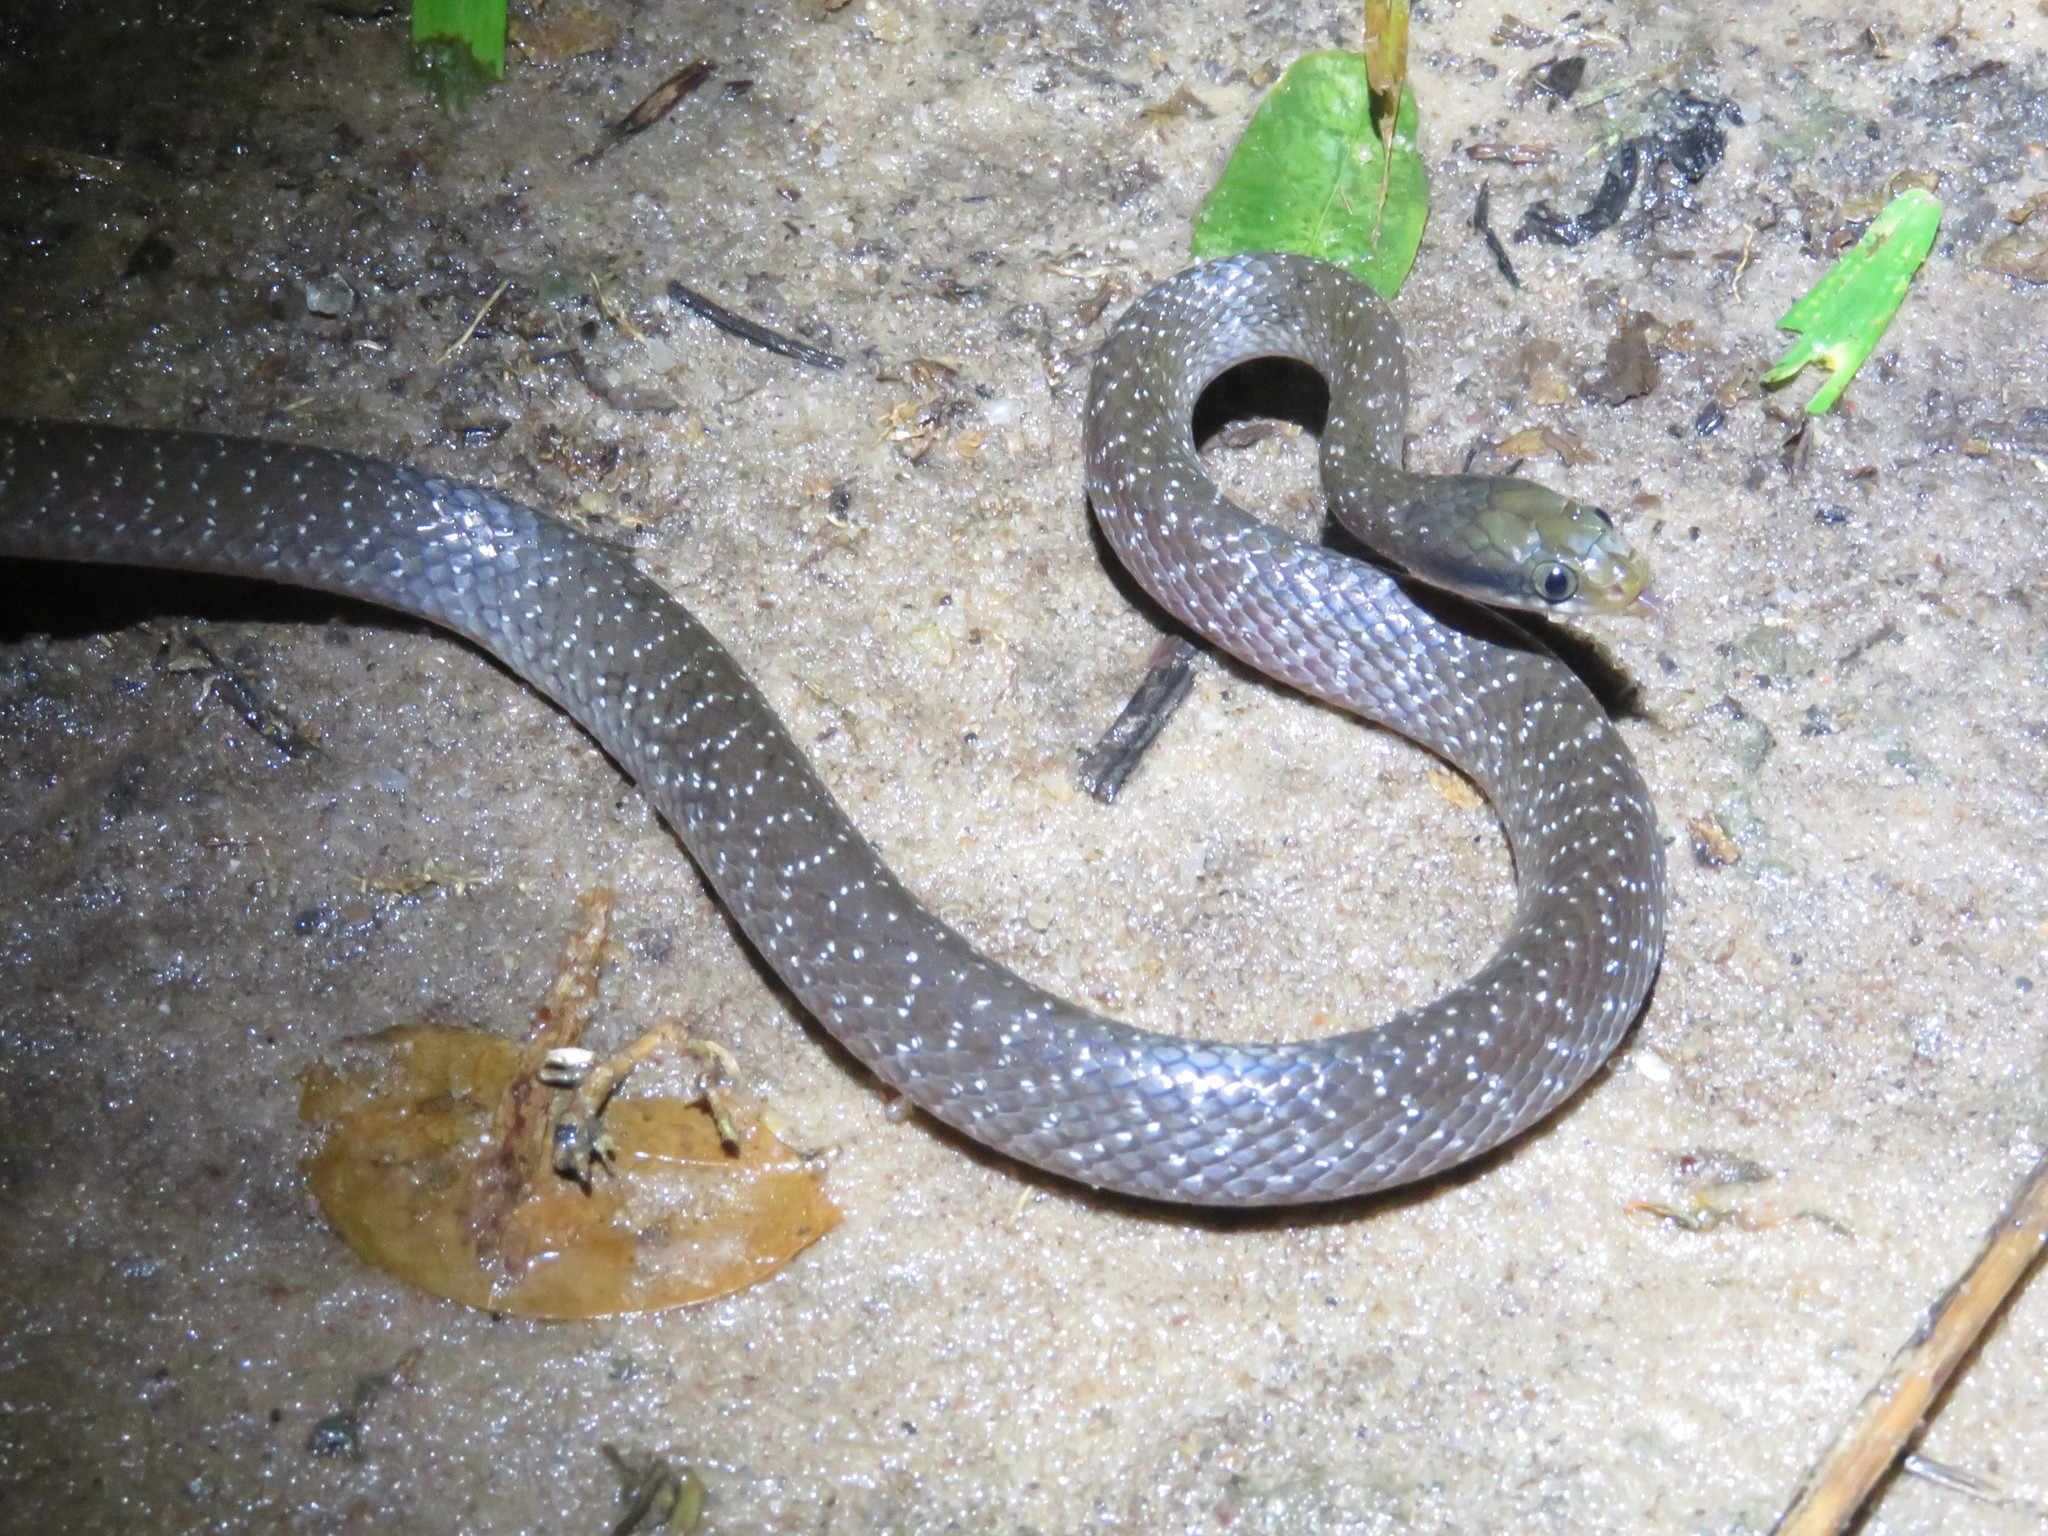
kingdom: Animalia
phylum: Chordata
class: Squamata
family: Colubridae
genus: Crotaphopeltis
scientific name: Crotaphopeltis hotamboeia
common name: Red-lipped snake
